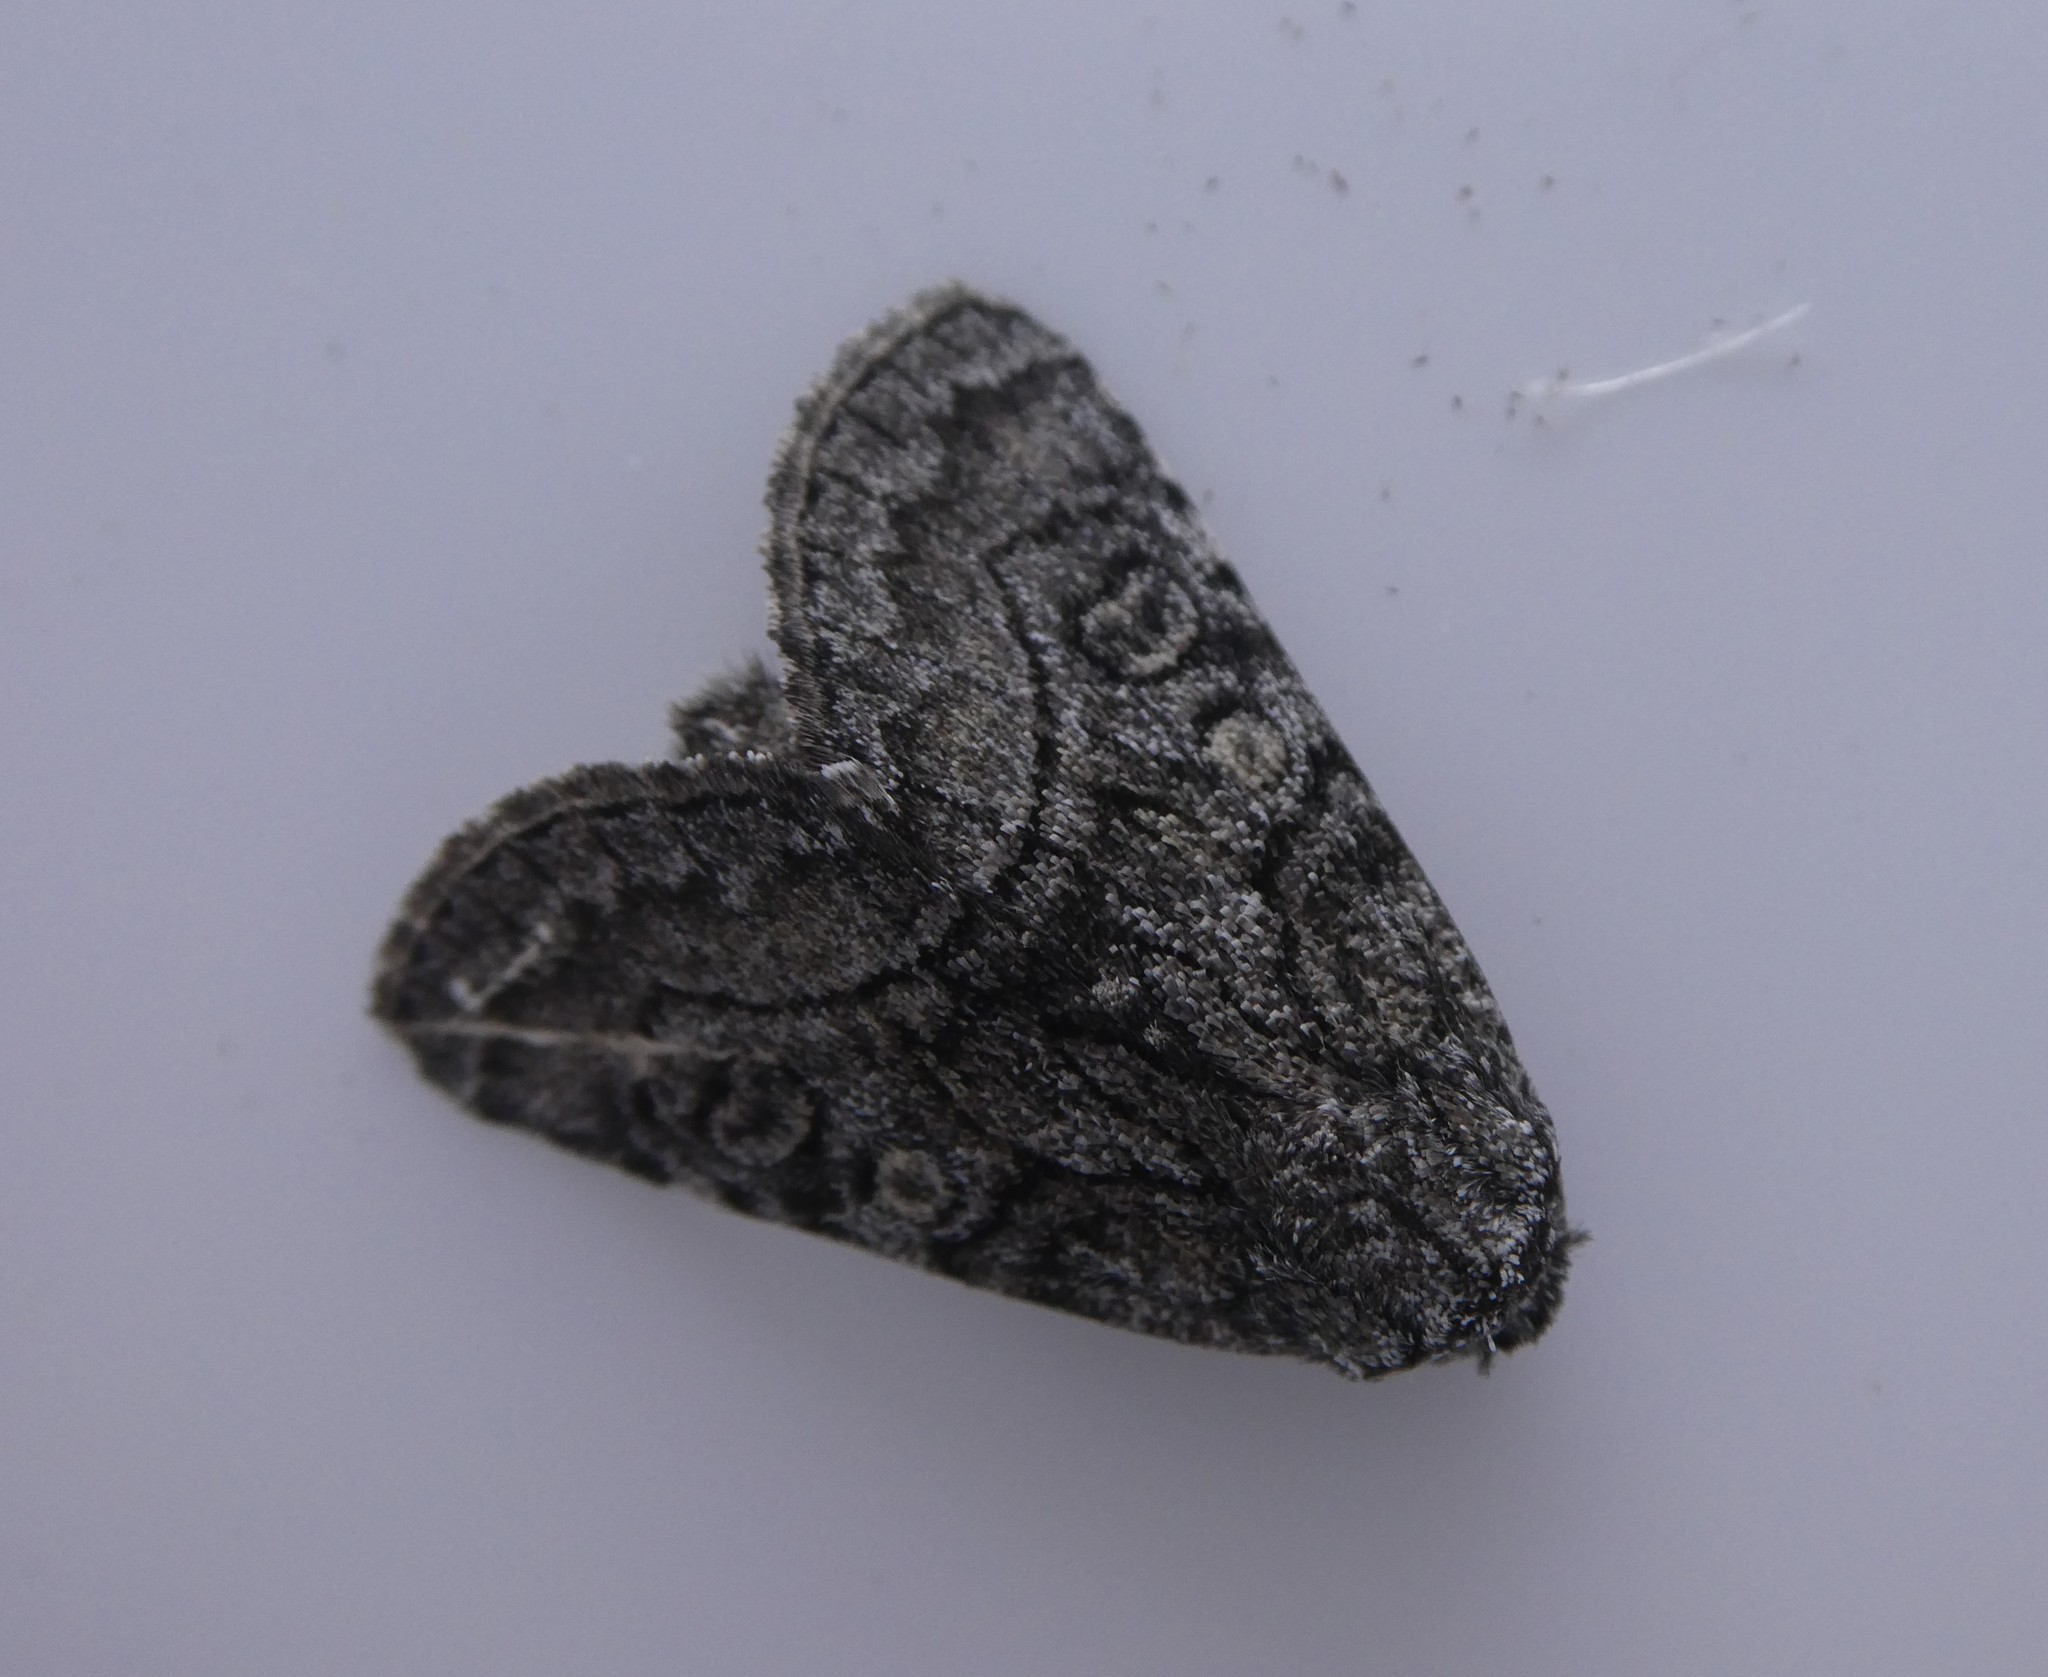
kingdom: Animalia
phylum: Arthropoda
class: Insecta
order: Lepidoptera
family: Noctuidae
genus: Raphia
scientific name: Raphia frater
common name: Brother
